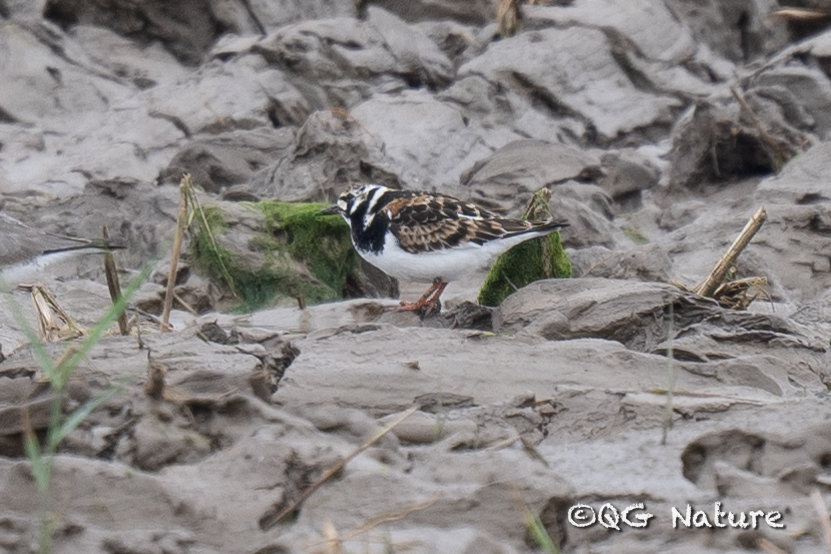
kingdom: Animalia
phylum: Chordata
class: Aves
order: Charadriiformes
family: Scolopacidae
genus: Arenaria
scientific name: Arenaria interpres
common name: Ruddy turnstone
